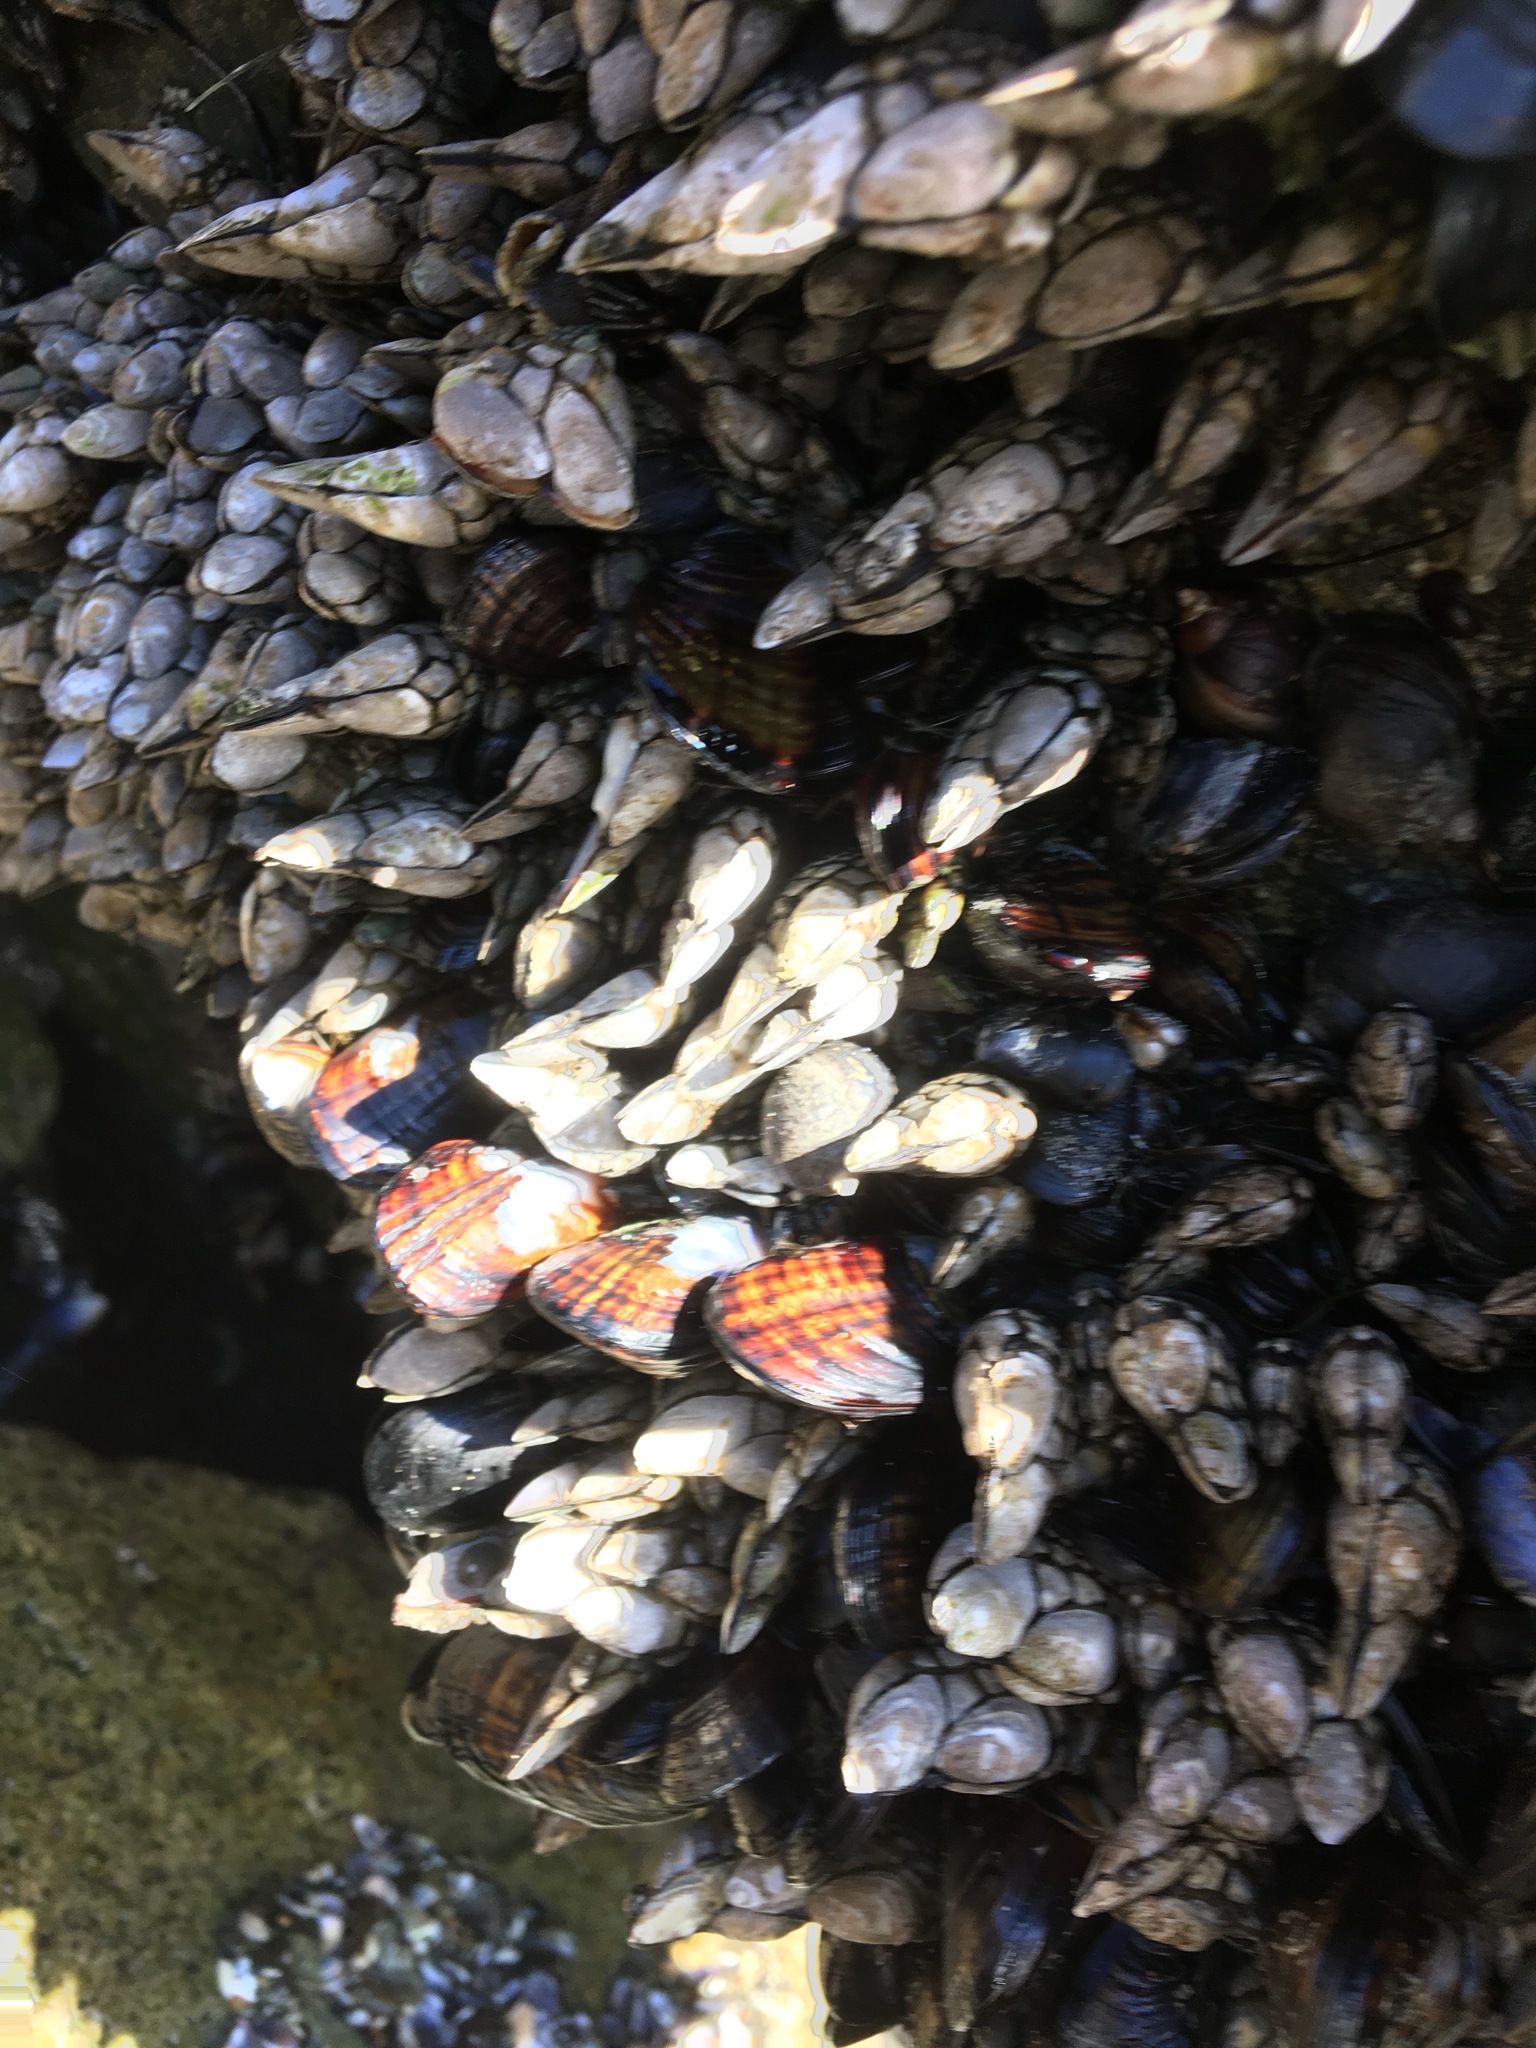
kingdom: Animalia
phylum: Mollusca
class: Bivalvia
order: Mytilida
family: Mytilidae
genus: Mytilus
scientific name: Mytilus californianus
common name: California mussel
